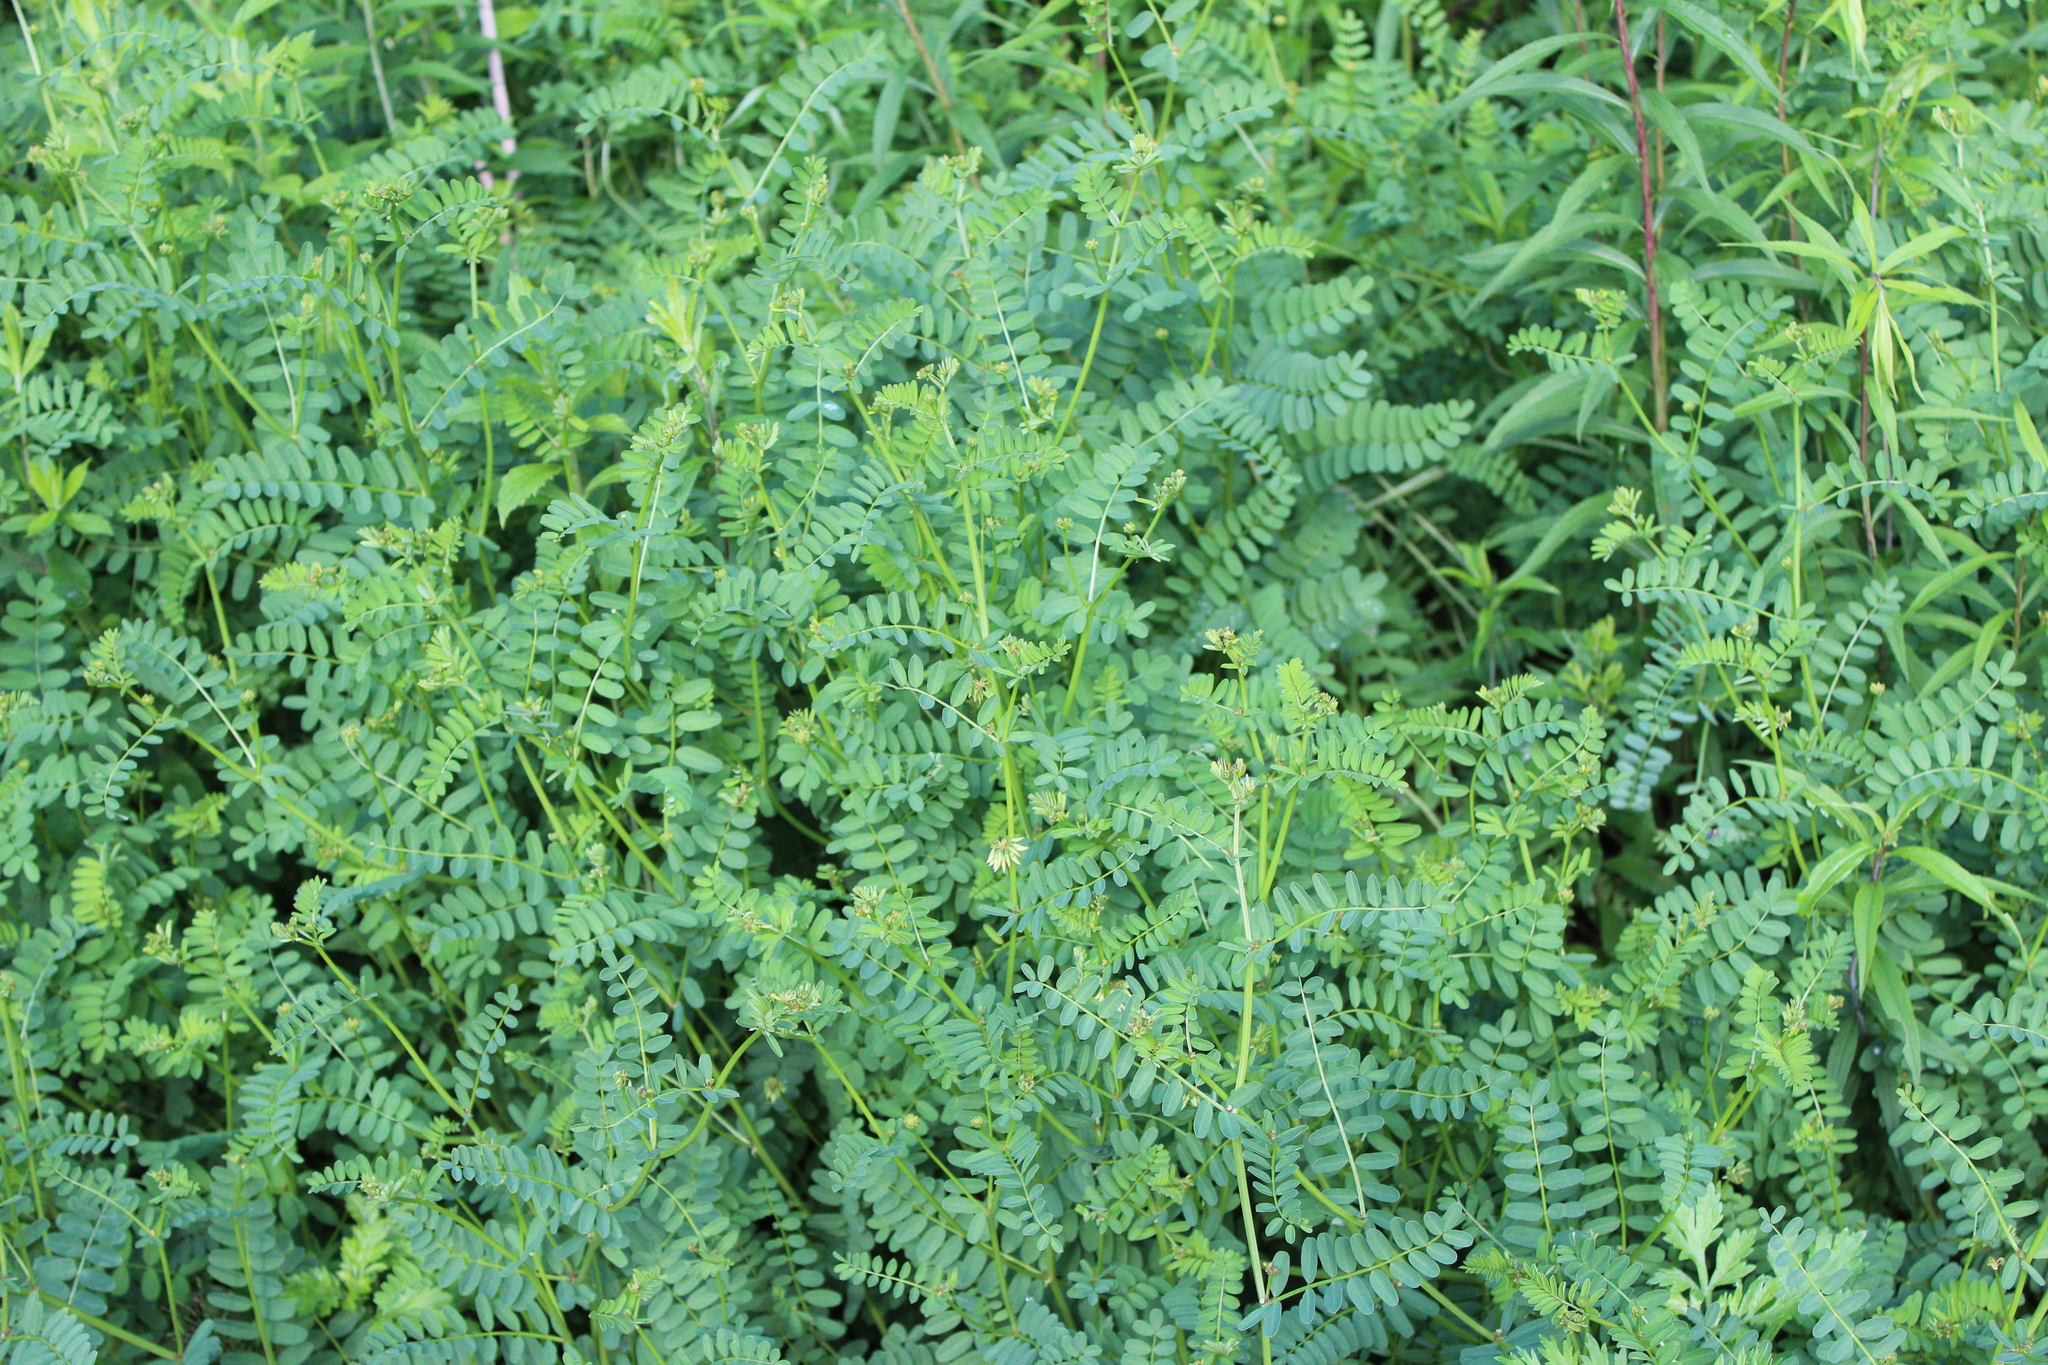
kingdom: Plantae
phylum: Tracheophyta
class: Magnoliopsida
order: Fabales
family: Fabaceae
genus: Coronilla
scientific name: Coronilla varia
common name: Crownvetch
